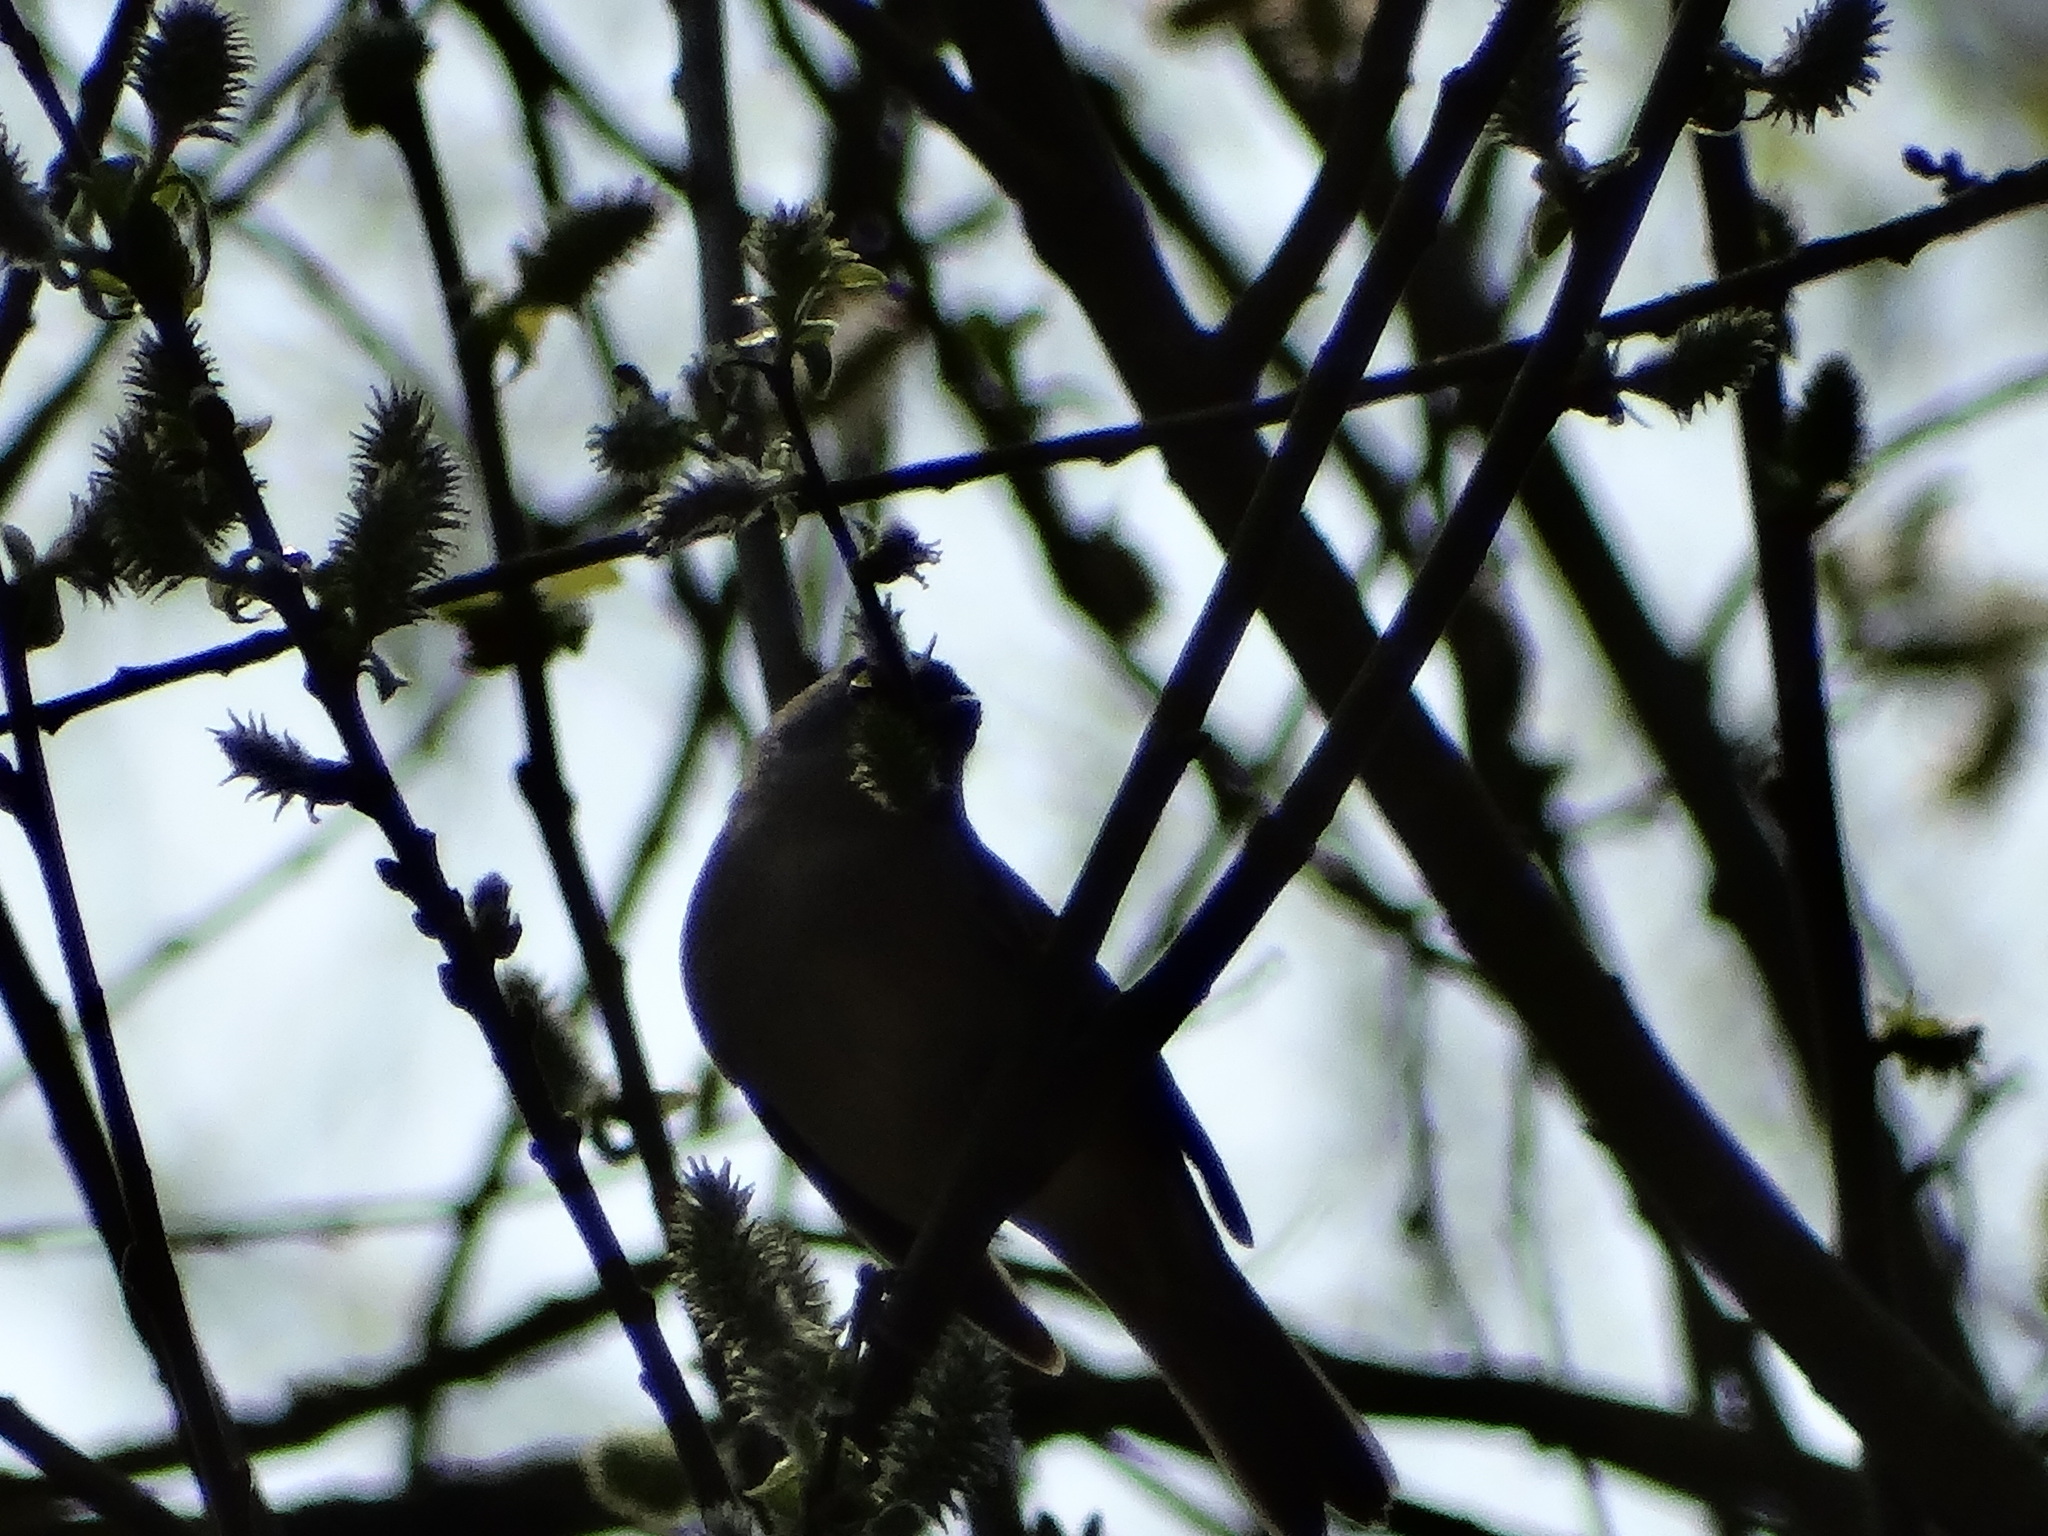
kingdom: Animalia
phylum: Chordata
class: Aves
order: Passeriformes
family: Corvidae
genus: Garrulus
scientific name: Garrulus glandarius
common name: Eurasian jay
